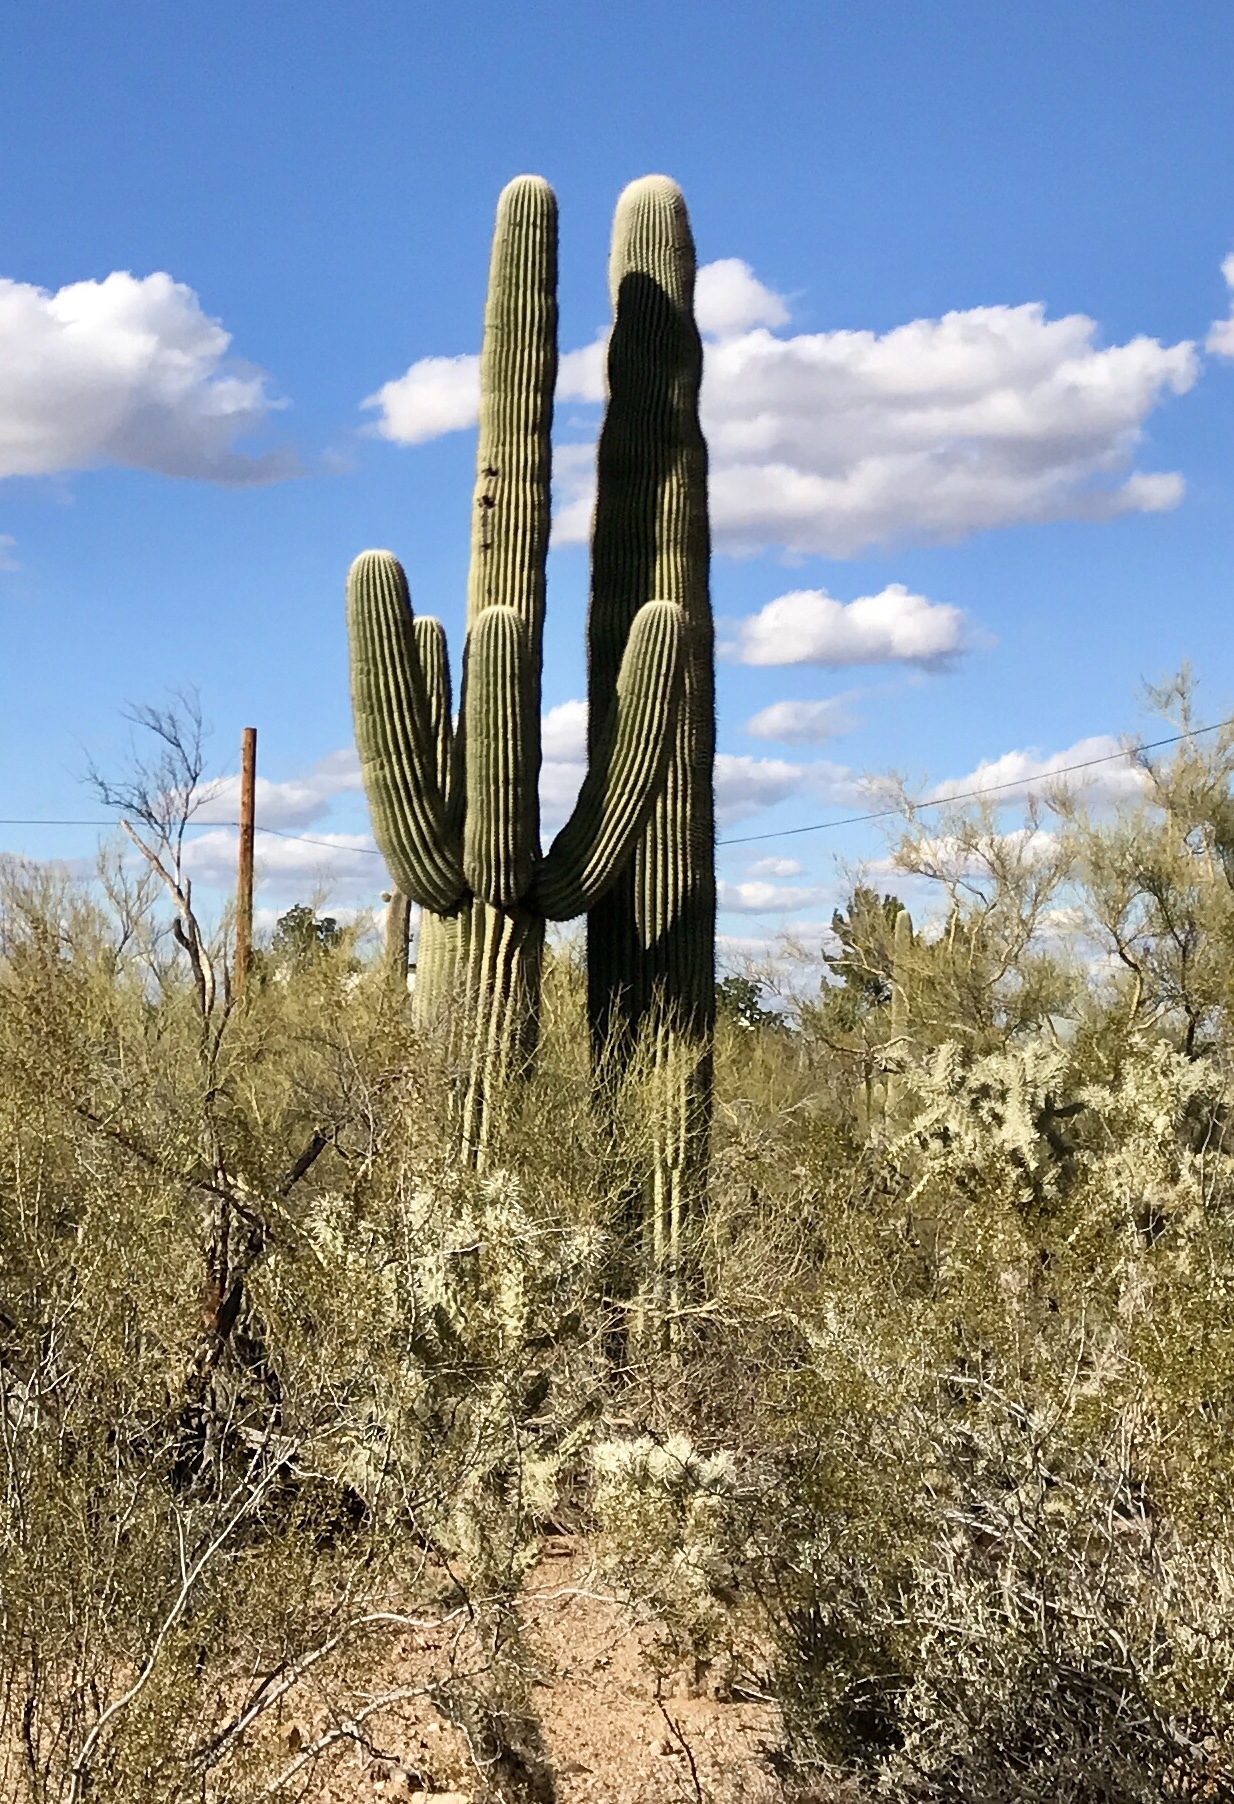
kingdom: Plantae
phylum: Tracheophyta
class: Magnoliopsida
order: Caryophyllales
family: Cactaceae
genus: Carnegiea
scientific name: Carnegiea gigantea
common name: Saguaro
